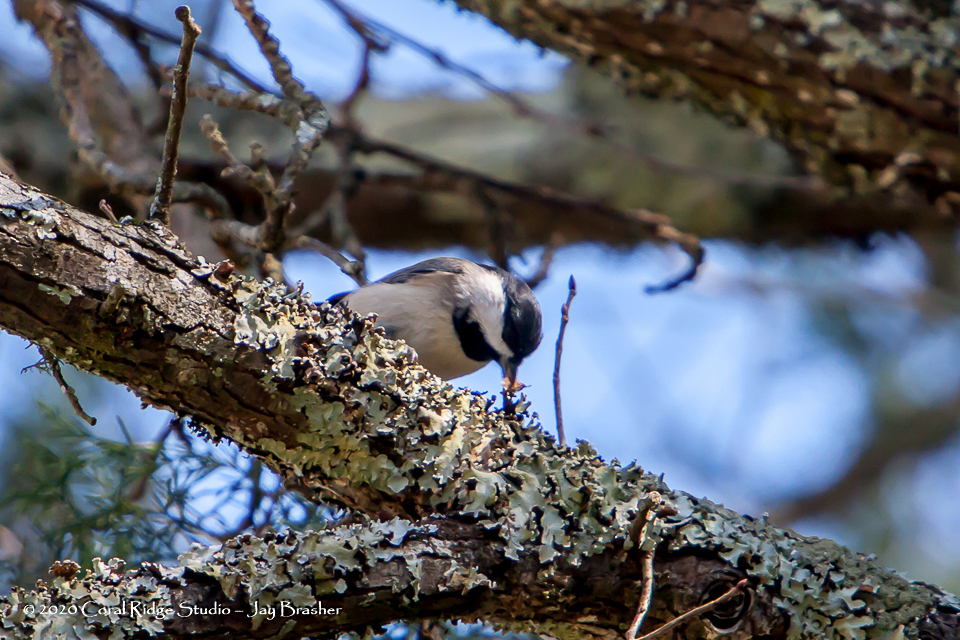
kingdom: Animalia
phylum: Chordata
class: Aves
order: Passeriformes
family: Paridae
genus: Poecile
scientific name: Poecile carolinensis
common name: Carolina chickadee
